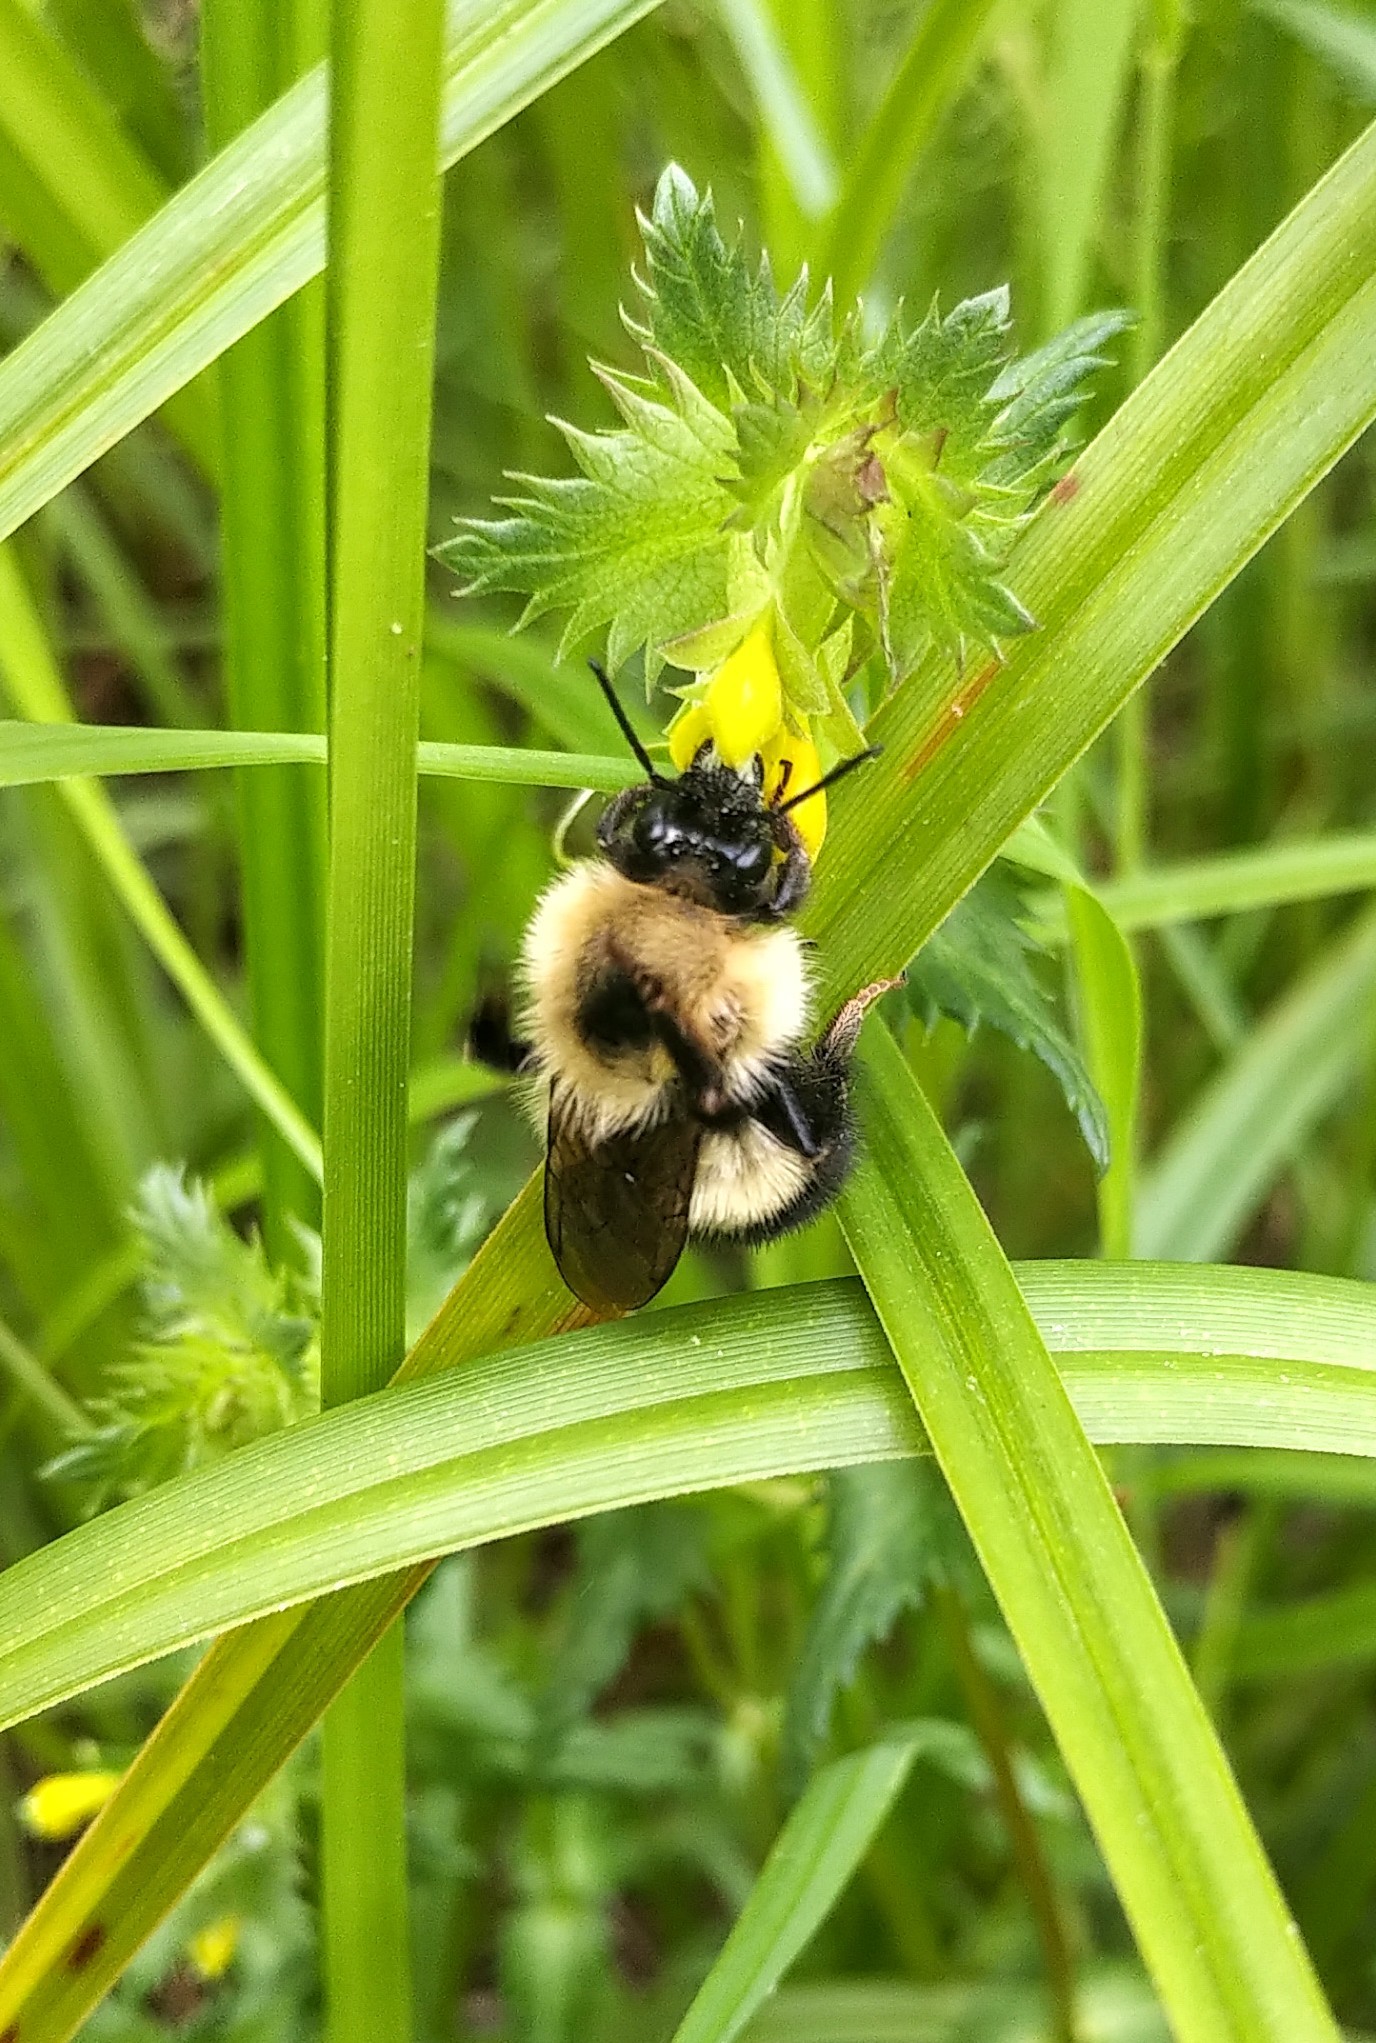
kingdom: Animalia
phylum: Arthropoda
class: Insecta
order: Hymenoptera
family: Apidae
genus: Bombus
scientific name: Bombus vagans
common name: Half-black bumble bee
